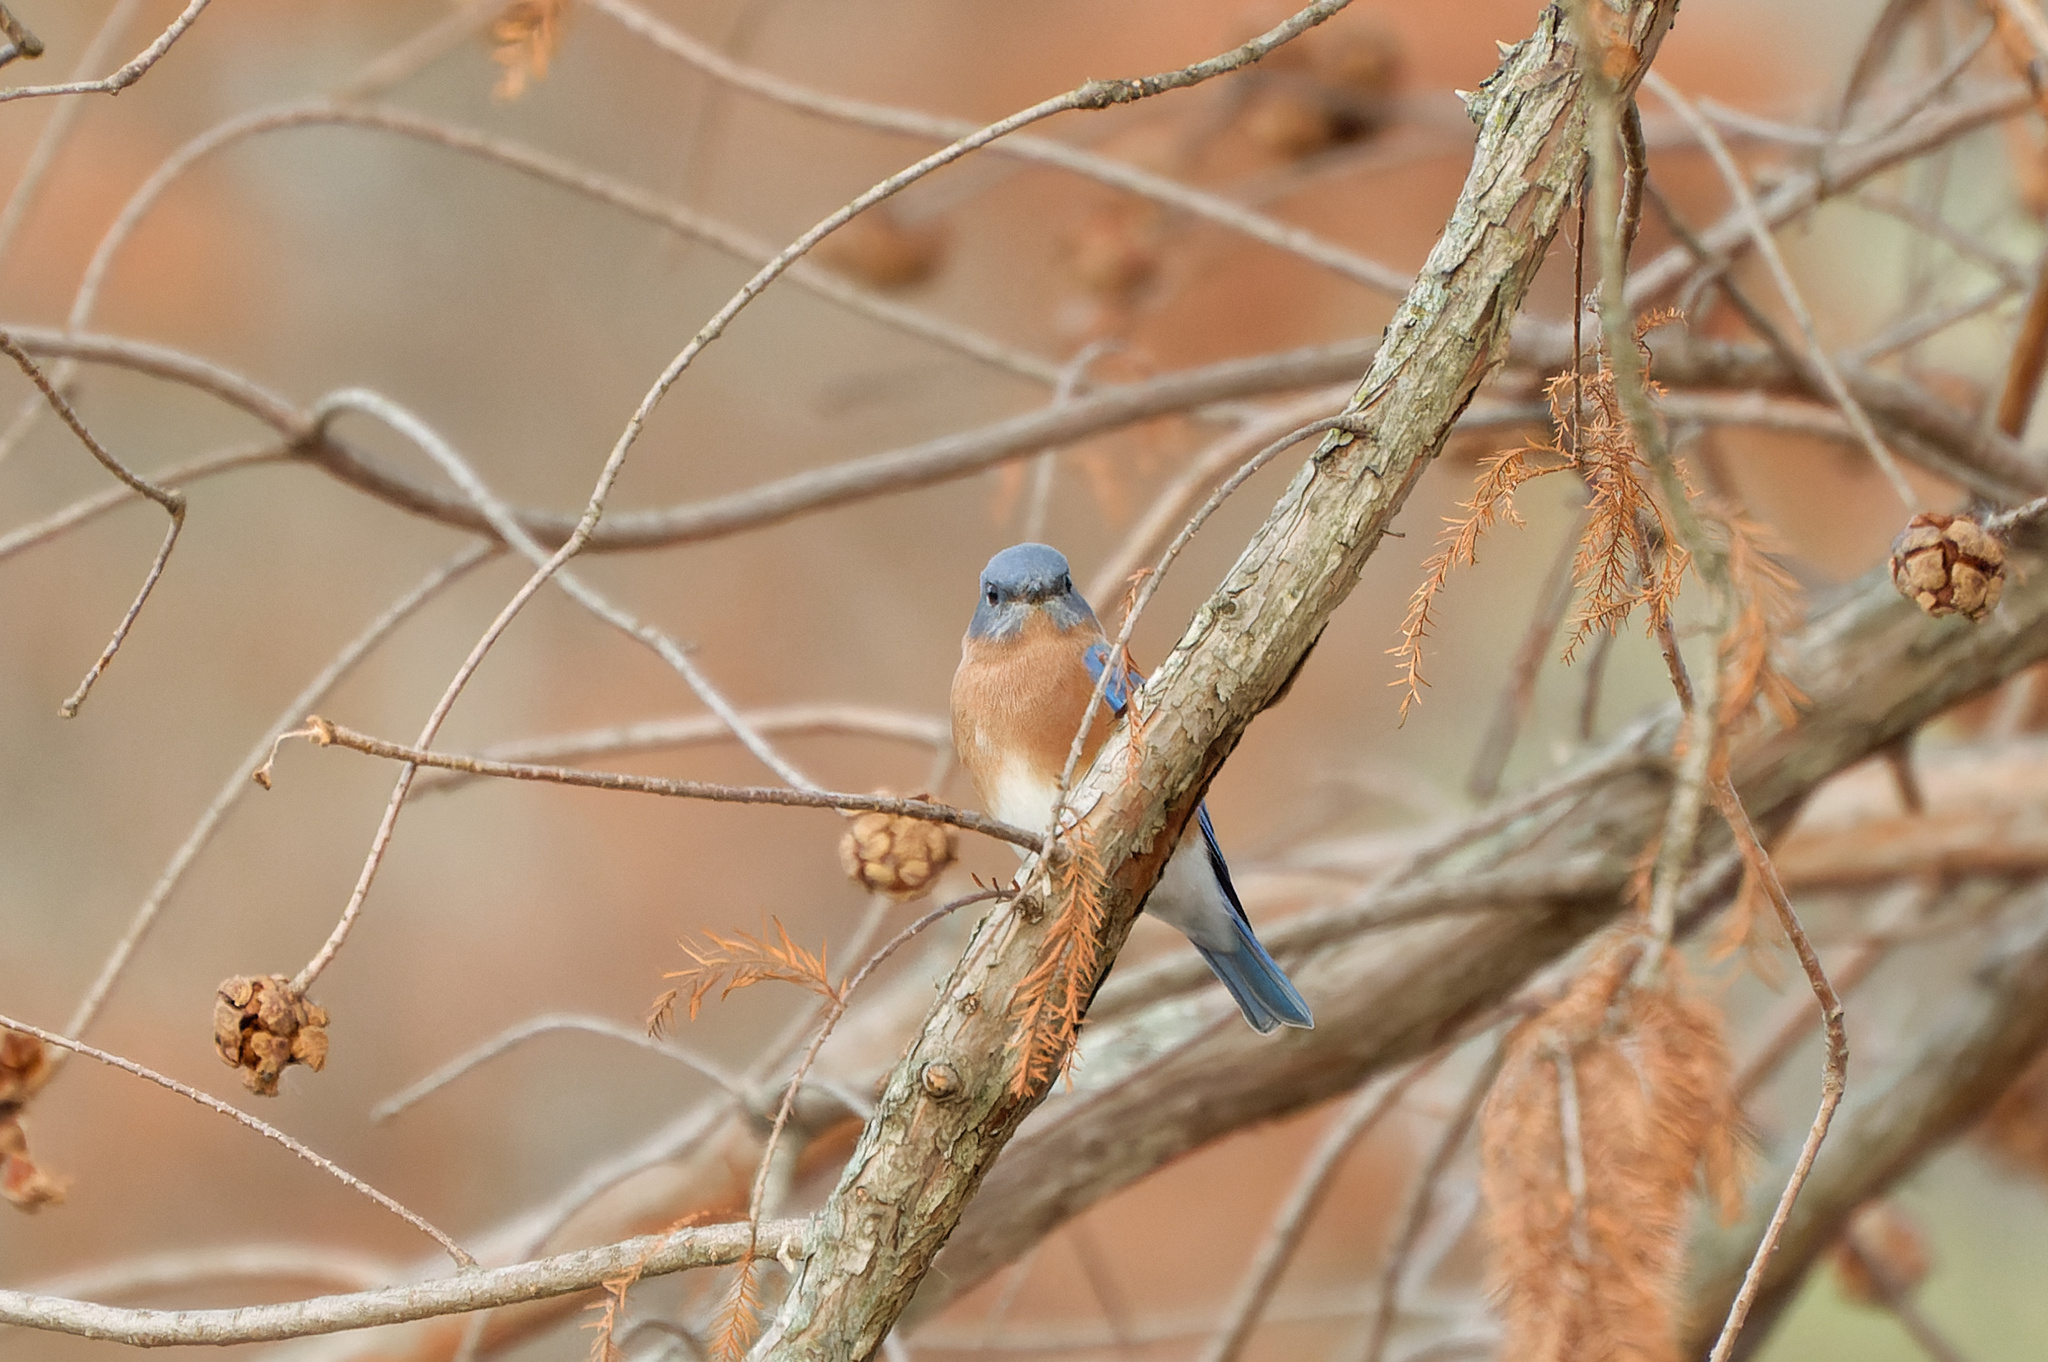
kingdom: Animalia
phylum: Chordata
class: Aves
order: Passeriformes
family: Turdidae
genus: Sialia
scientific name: Sialia sialis
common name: Eastern bluebird
